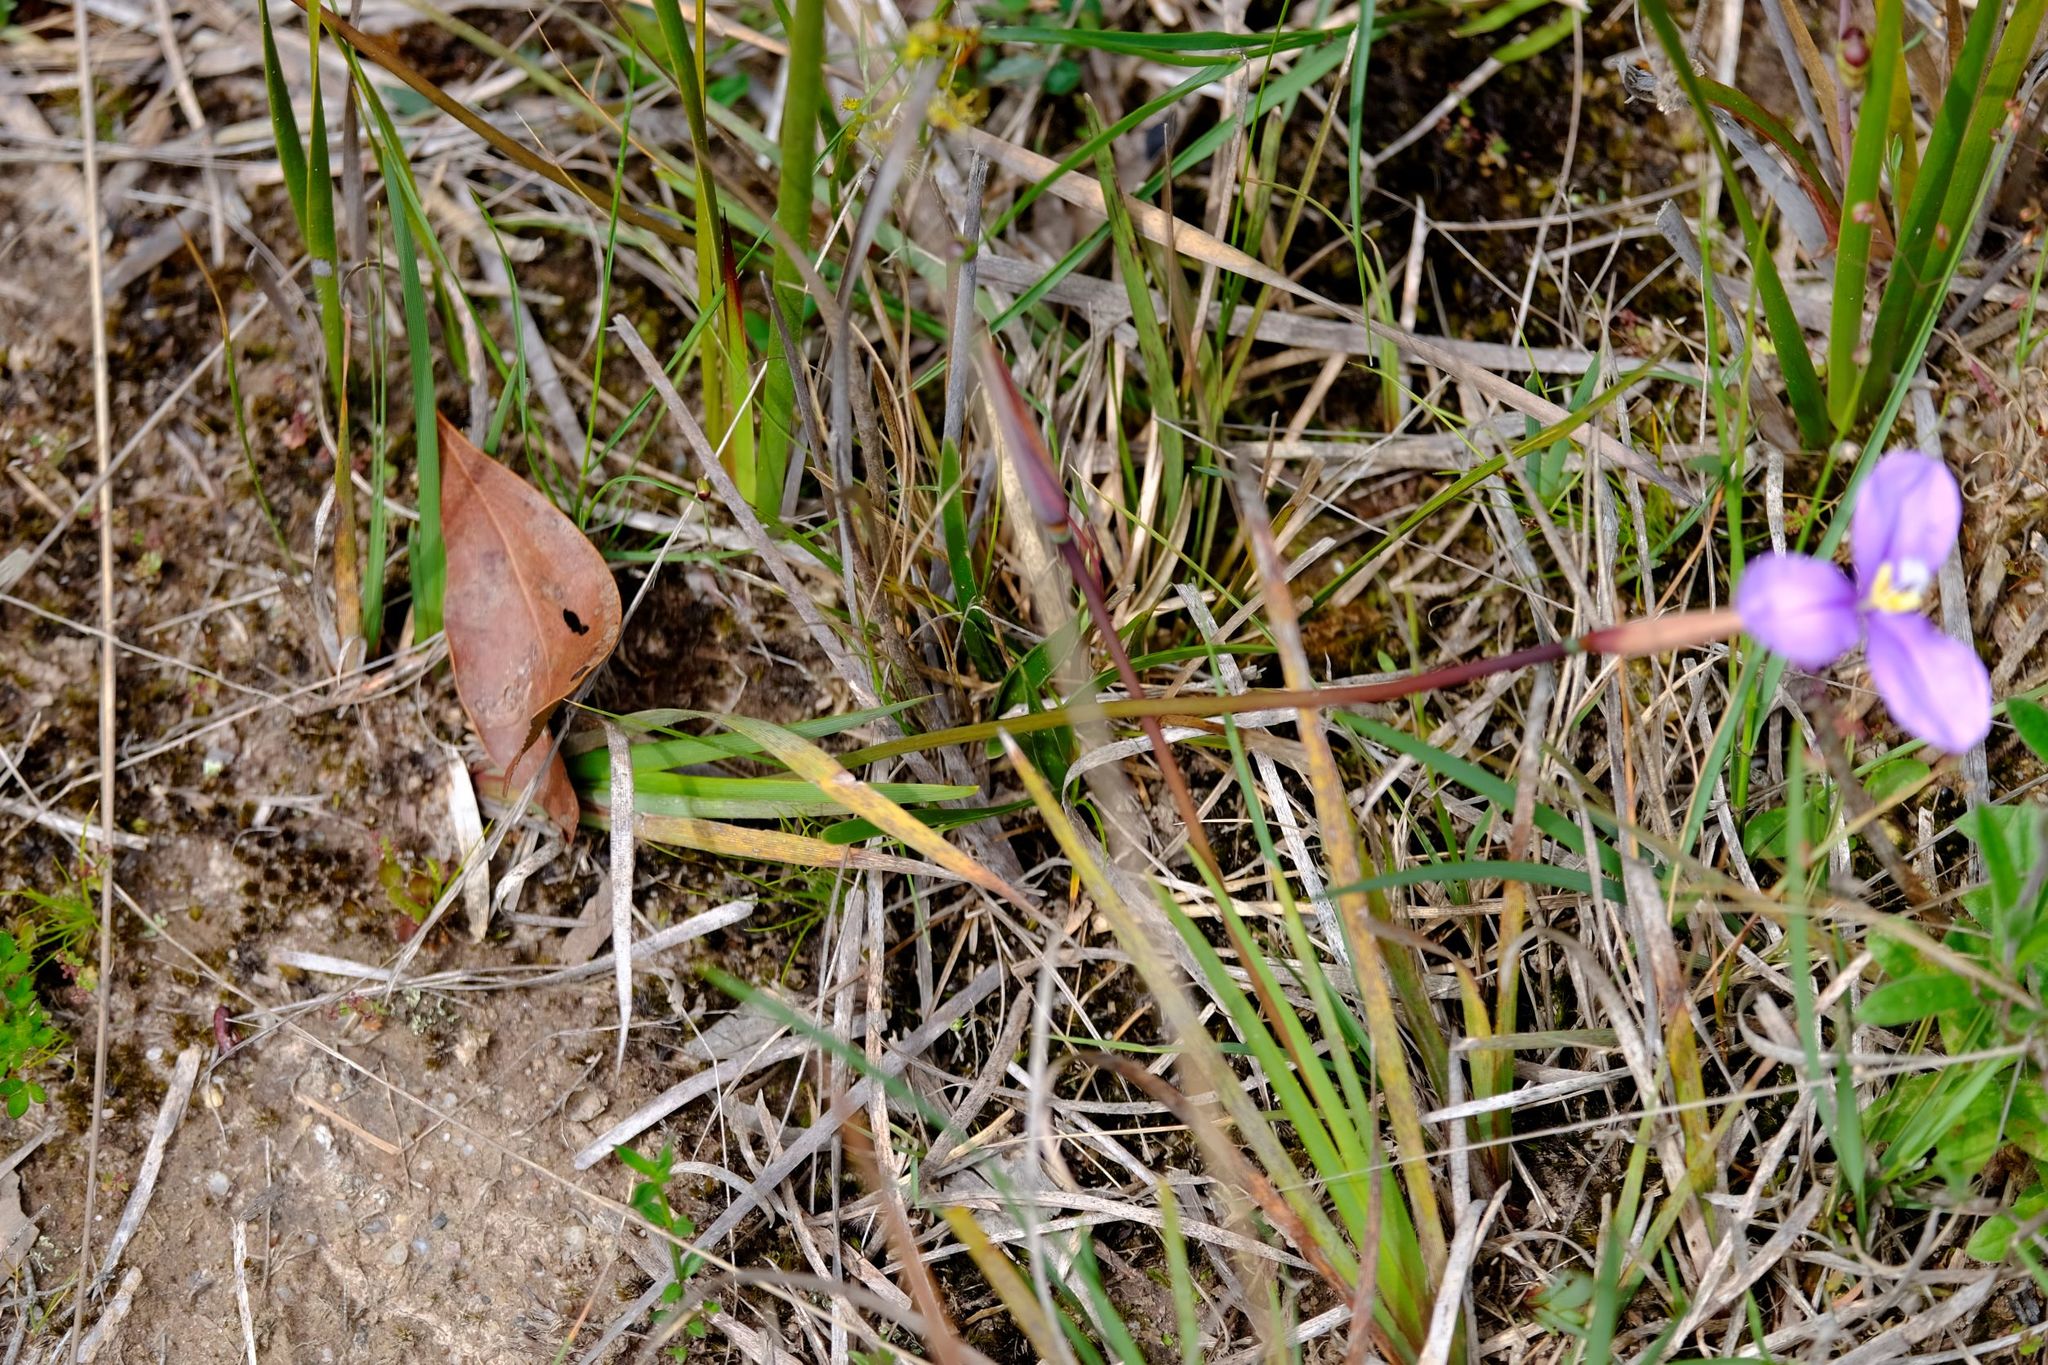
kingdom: Plantae
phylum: Tracheophyta
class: Liliopsida
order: Asparagales
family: Iridaceae
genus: Patersonia
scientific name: Patersonia occidentalis
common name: Long purple-flag
